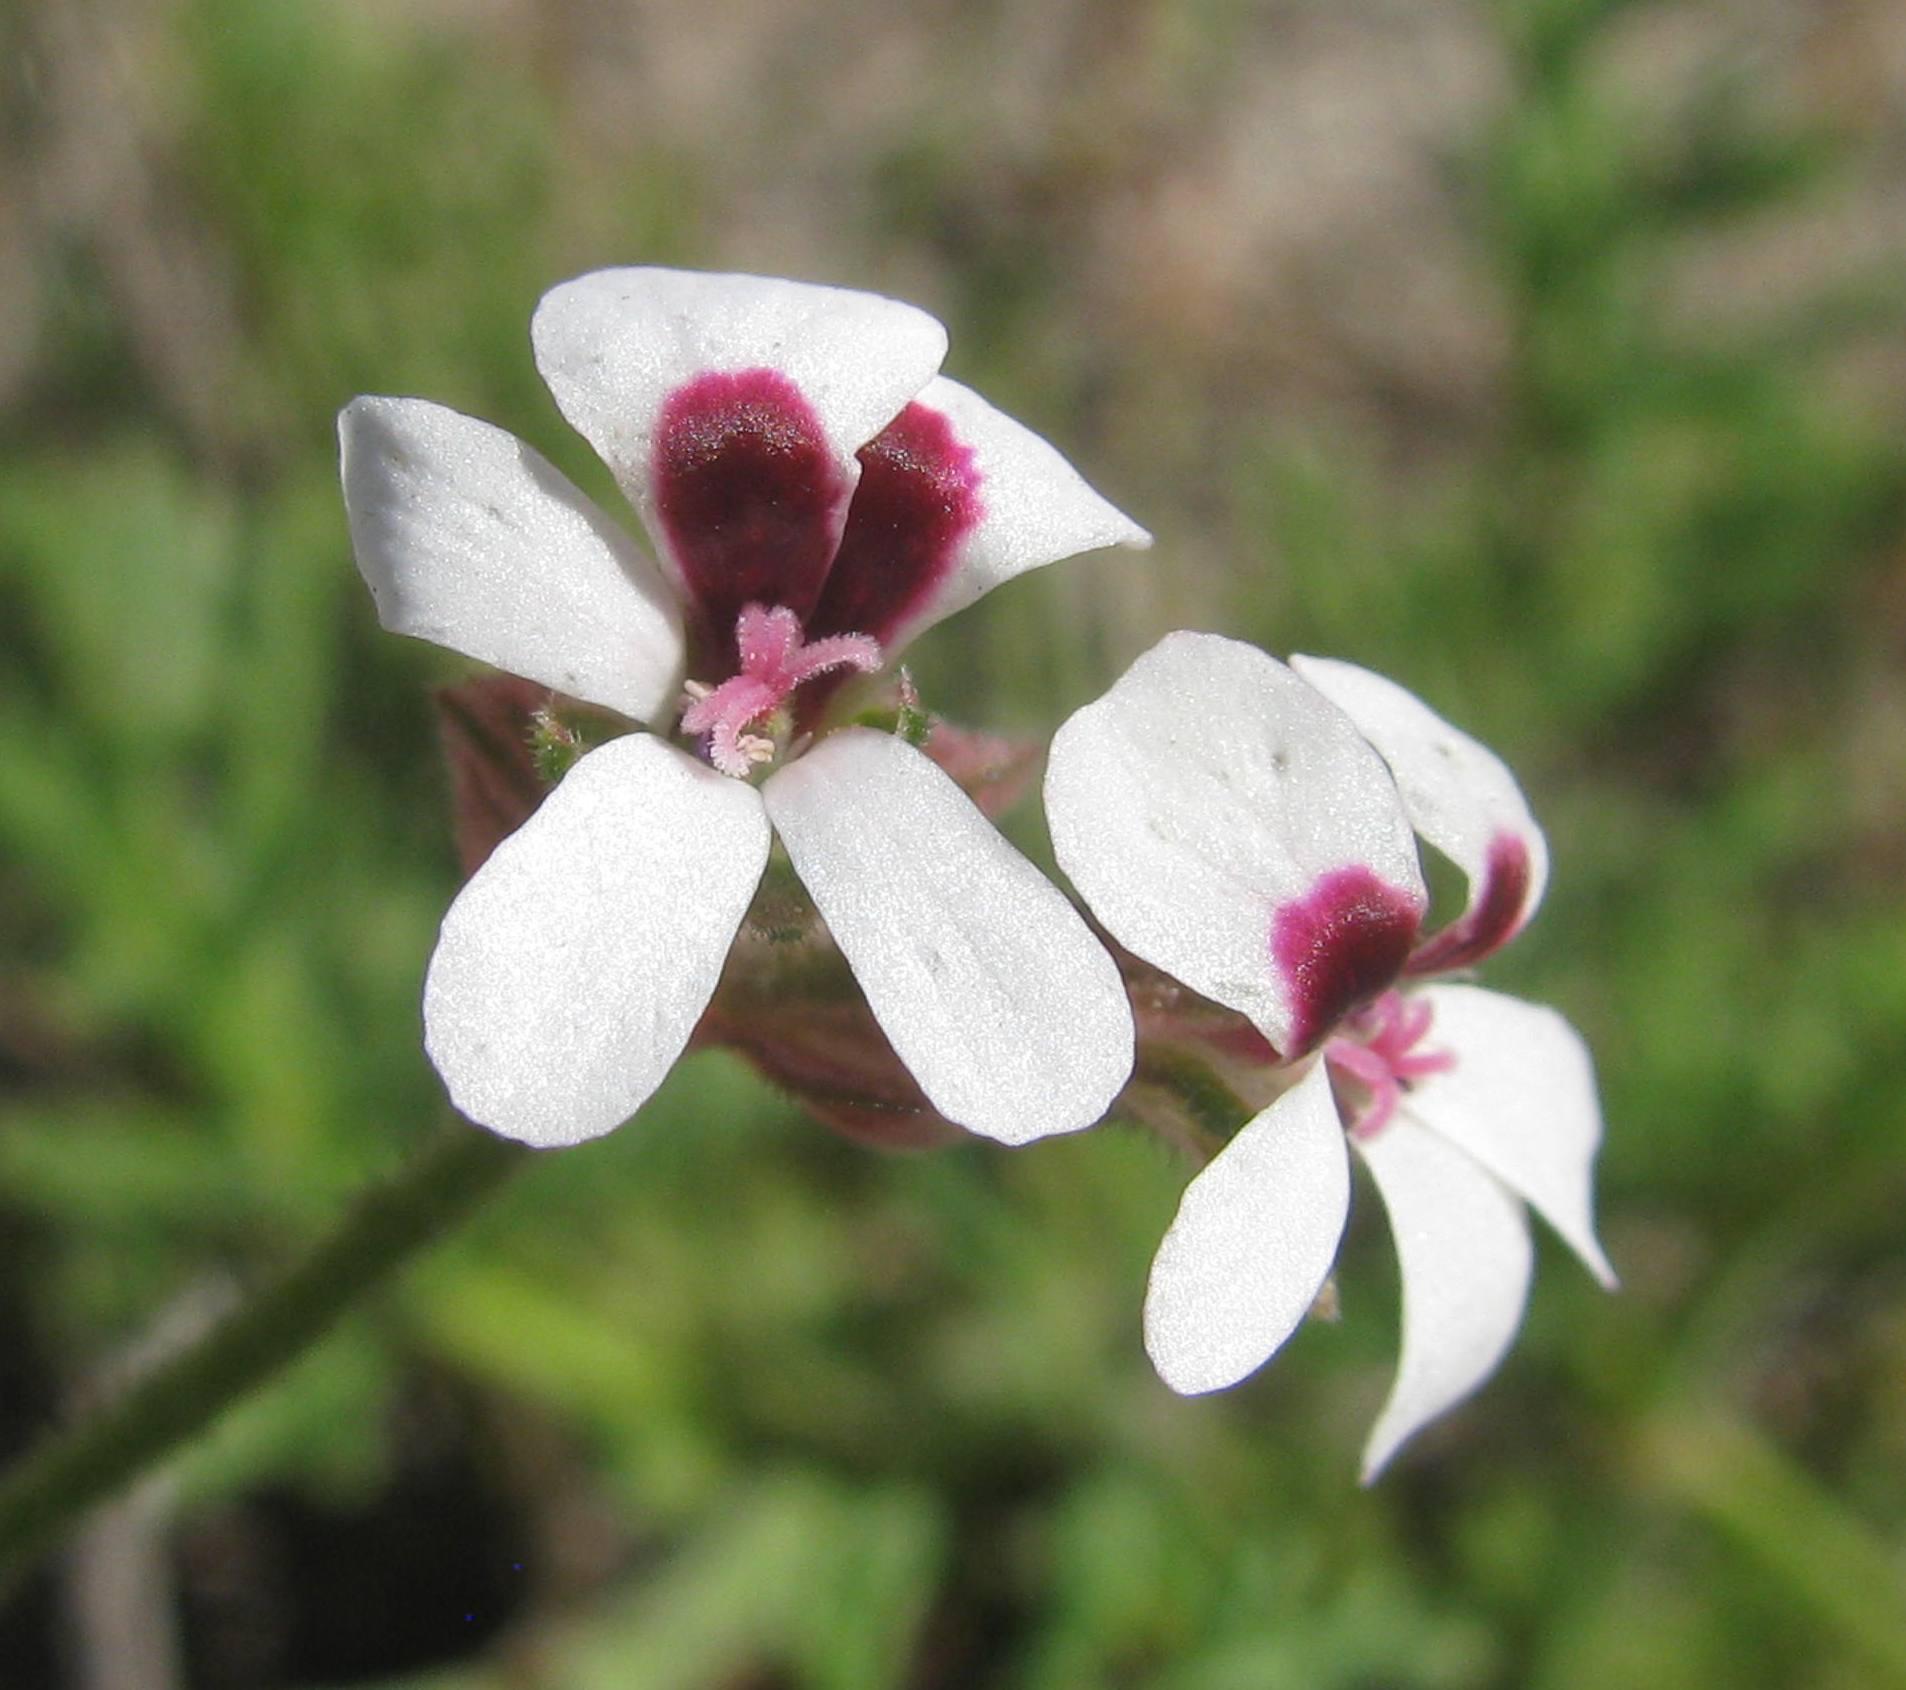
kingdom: Plantae
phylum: Tracheophyta
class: Magnoliopsida
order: Geraniales
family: Geraniaceae
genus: Pelargonium
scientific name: Pelargonium senecioides
